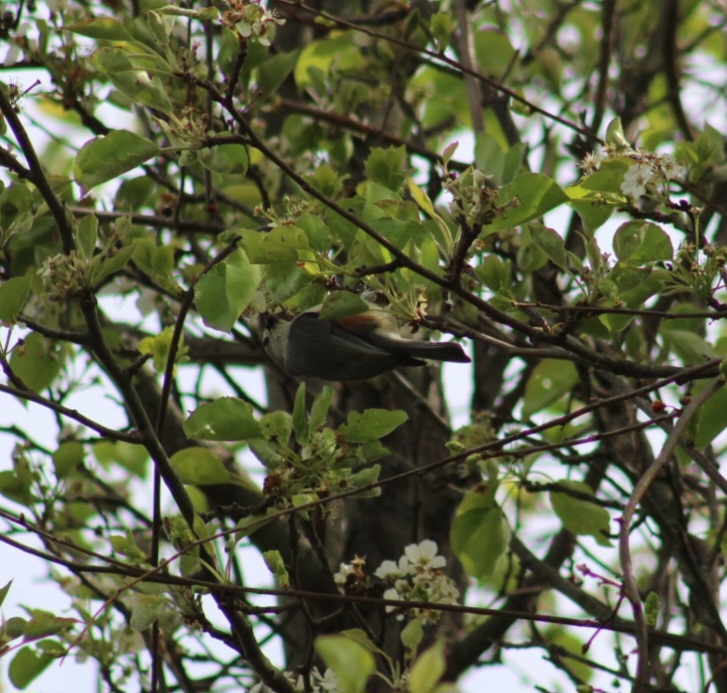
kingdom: Animalia
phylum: Chordata
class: Aves
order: Passeriformes
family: Paridae
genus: Baeolophus
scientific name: Baeolophus bicolor
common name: Tufted titmouse
